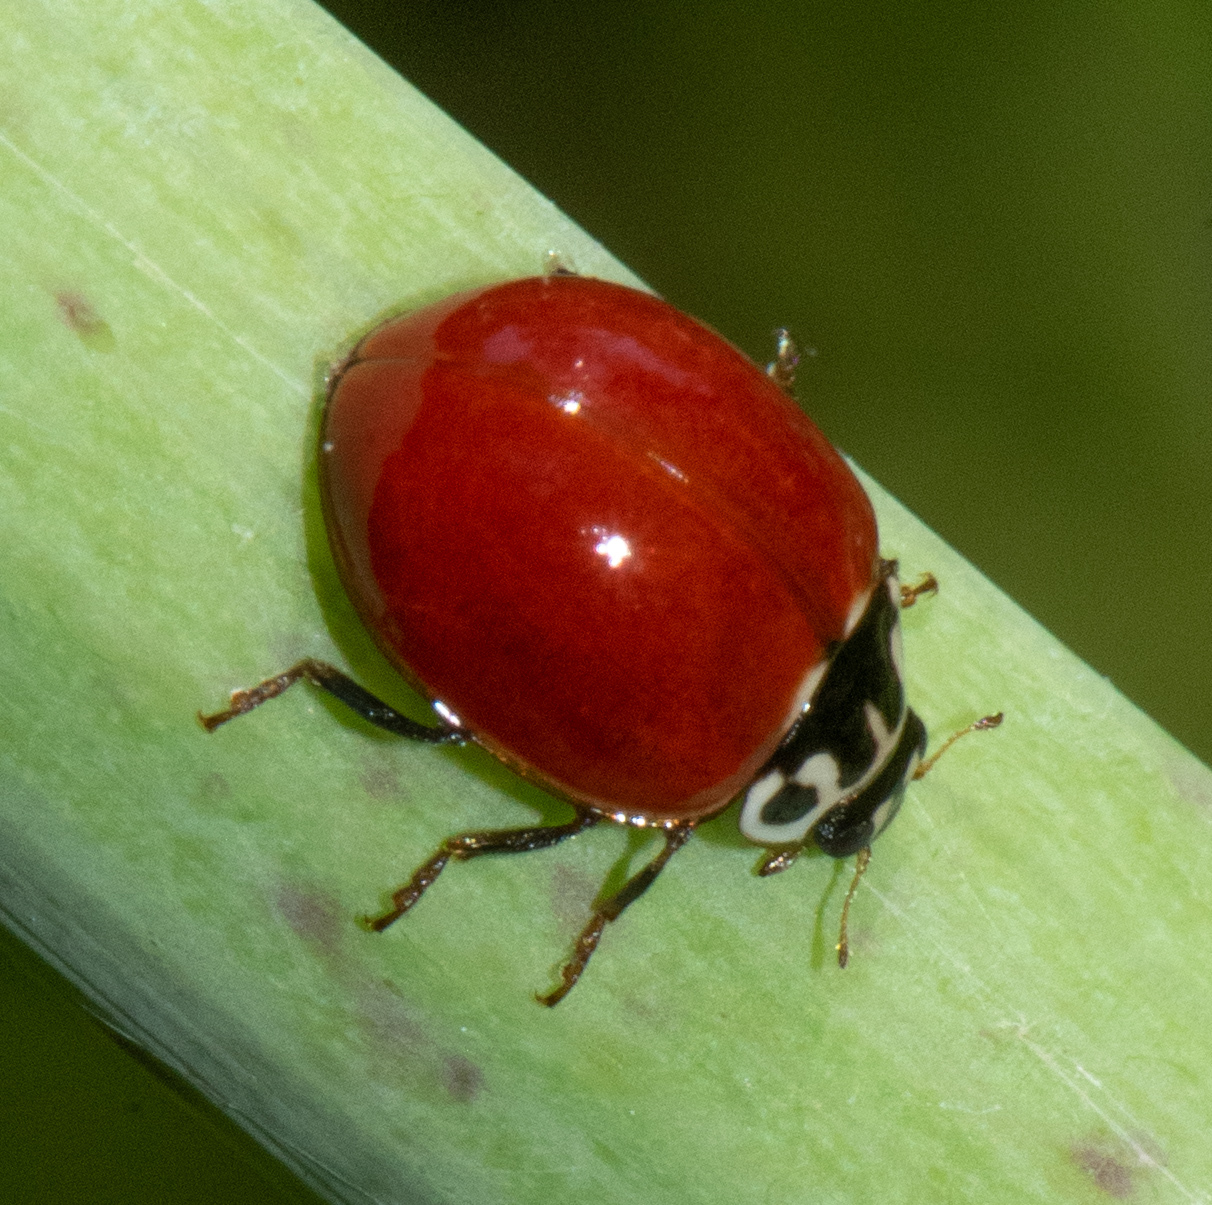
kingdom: Animalia
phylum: Arthropoda
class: Insecta
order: Coleoptera
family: Coccinellidae
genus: Cycloneda
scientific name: Cycloneda polita
